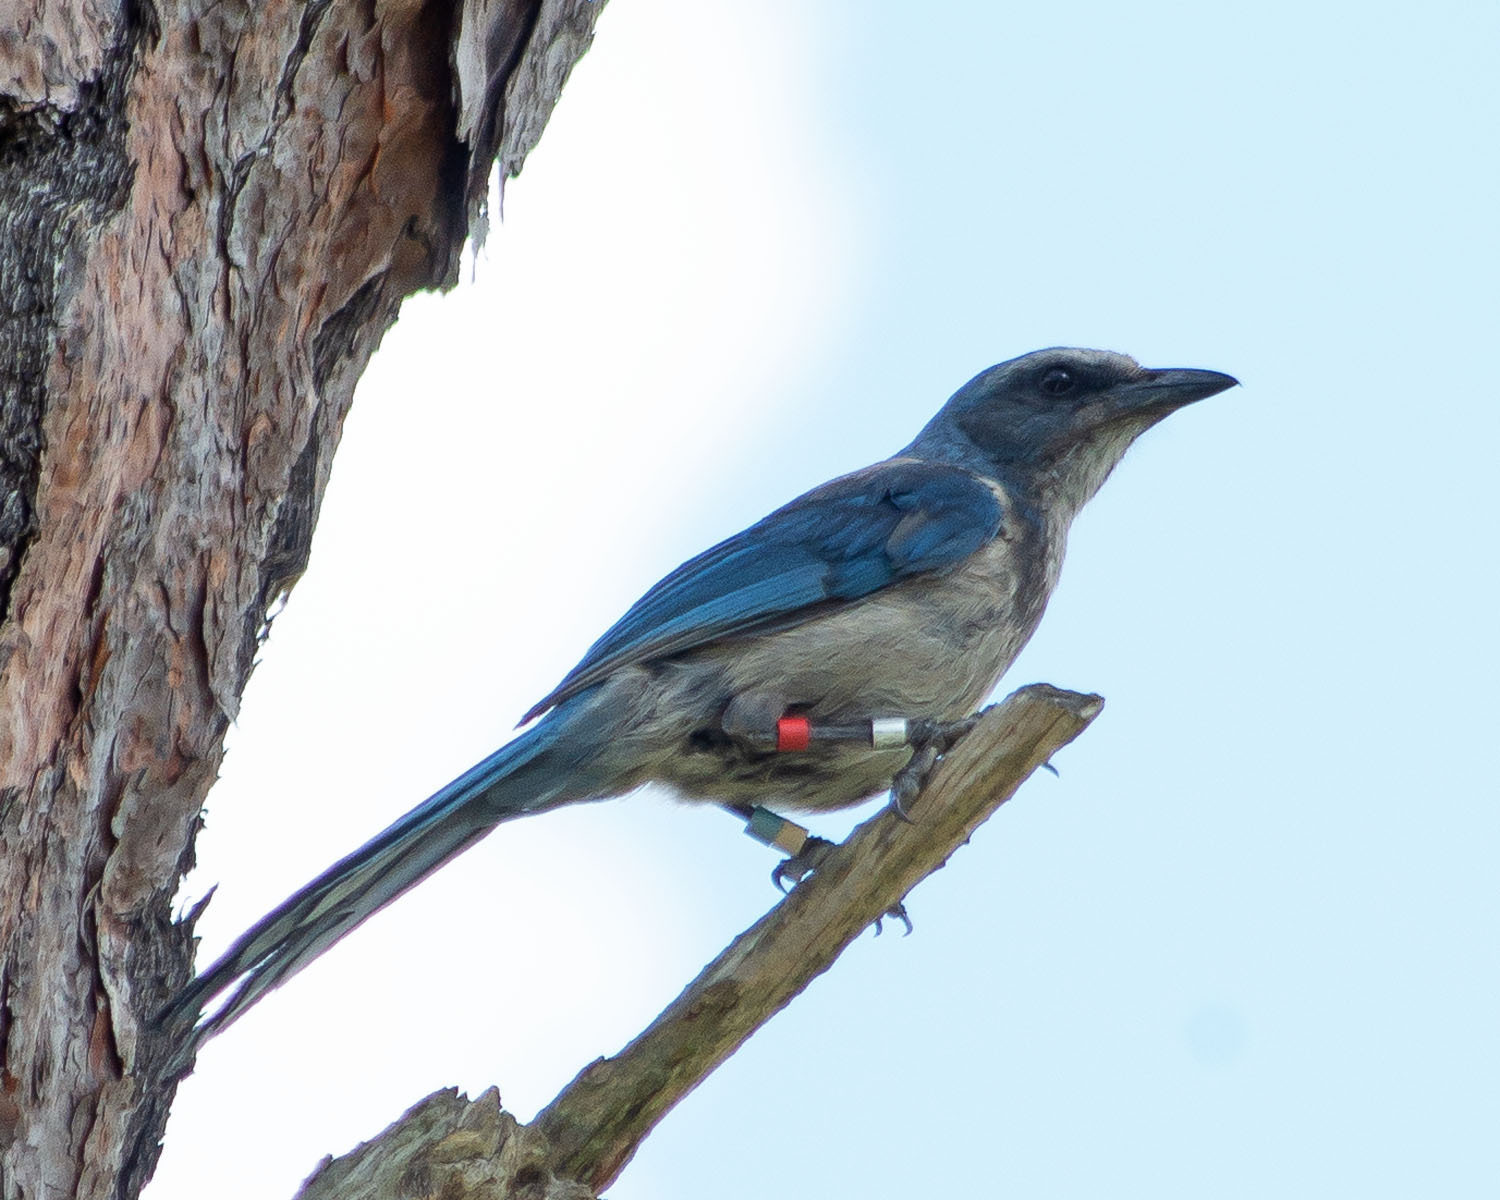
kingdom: Animalia
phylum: Chordata
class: Aves
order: Passeriformes
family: Corvidae
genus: Aphelocoma
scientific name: Aphelocoma coerulescens
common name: Florida scrub jay
